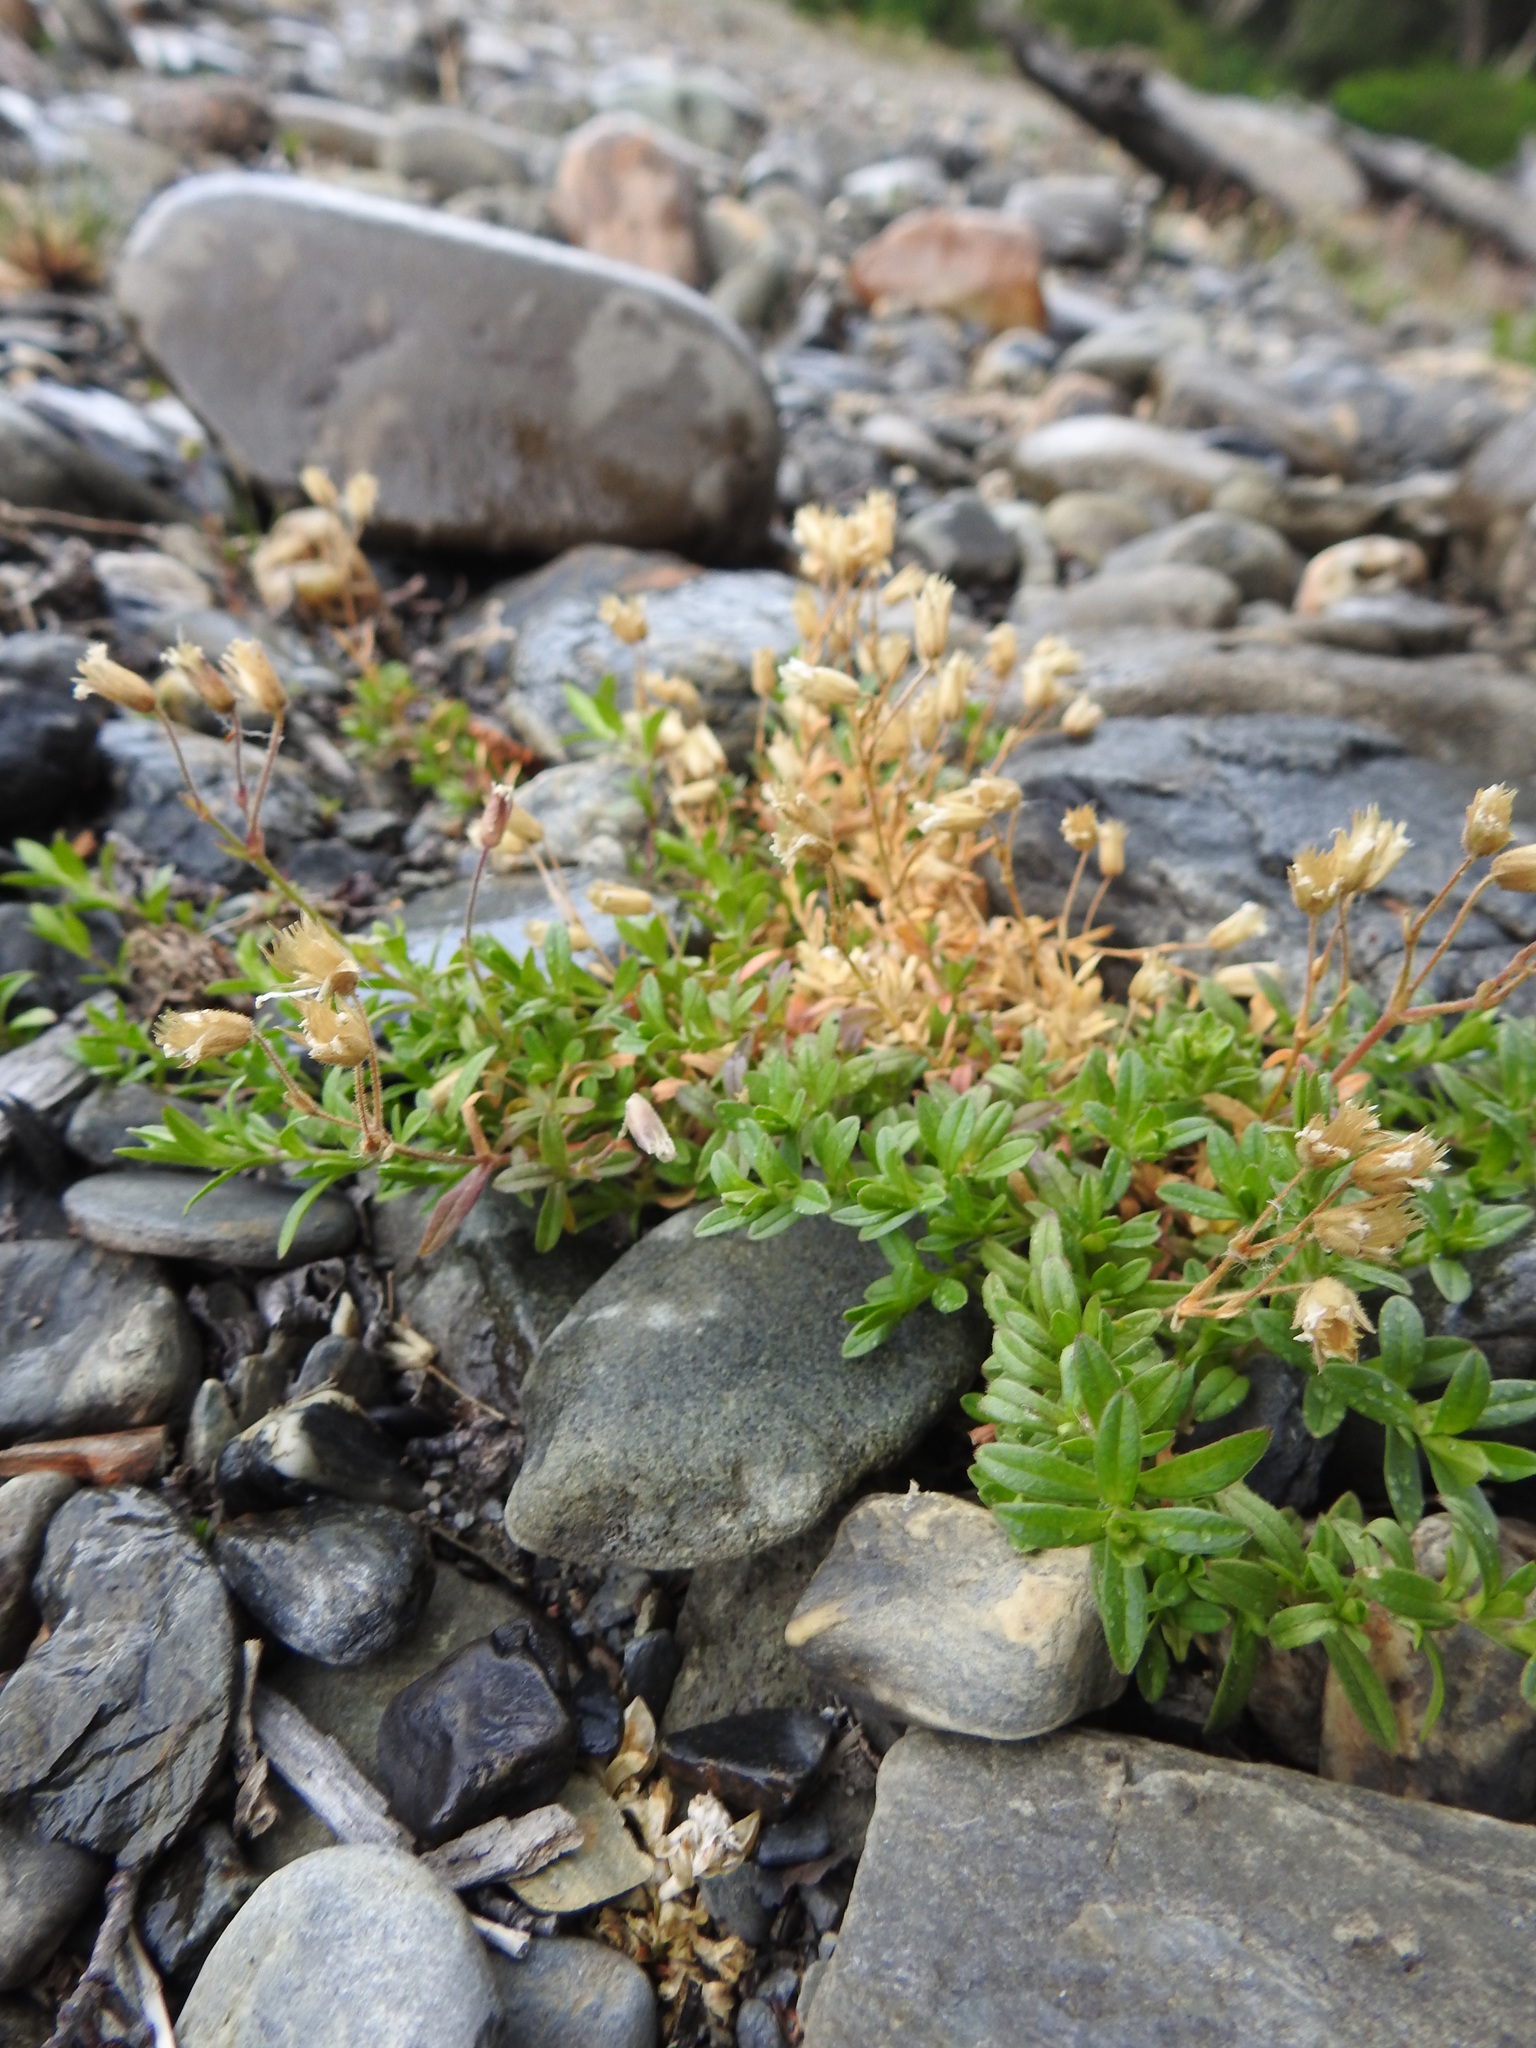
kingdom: Plantae
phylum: Tracheophyta
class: Magnoliopsida
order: Caryophyllales
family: Caryophyllaceae
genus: Cerastium
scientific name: Cerastium arvense
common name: Field mouse-ear
